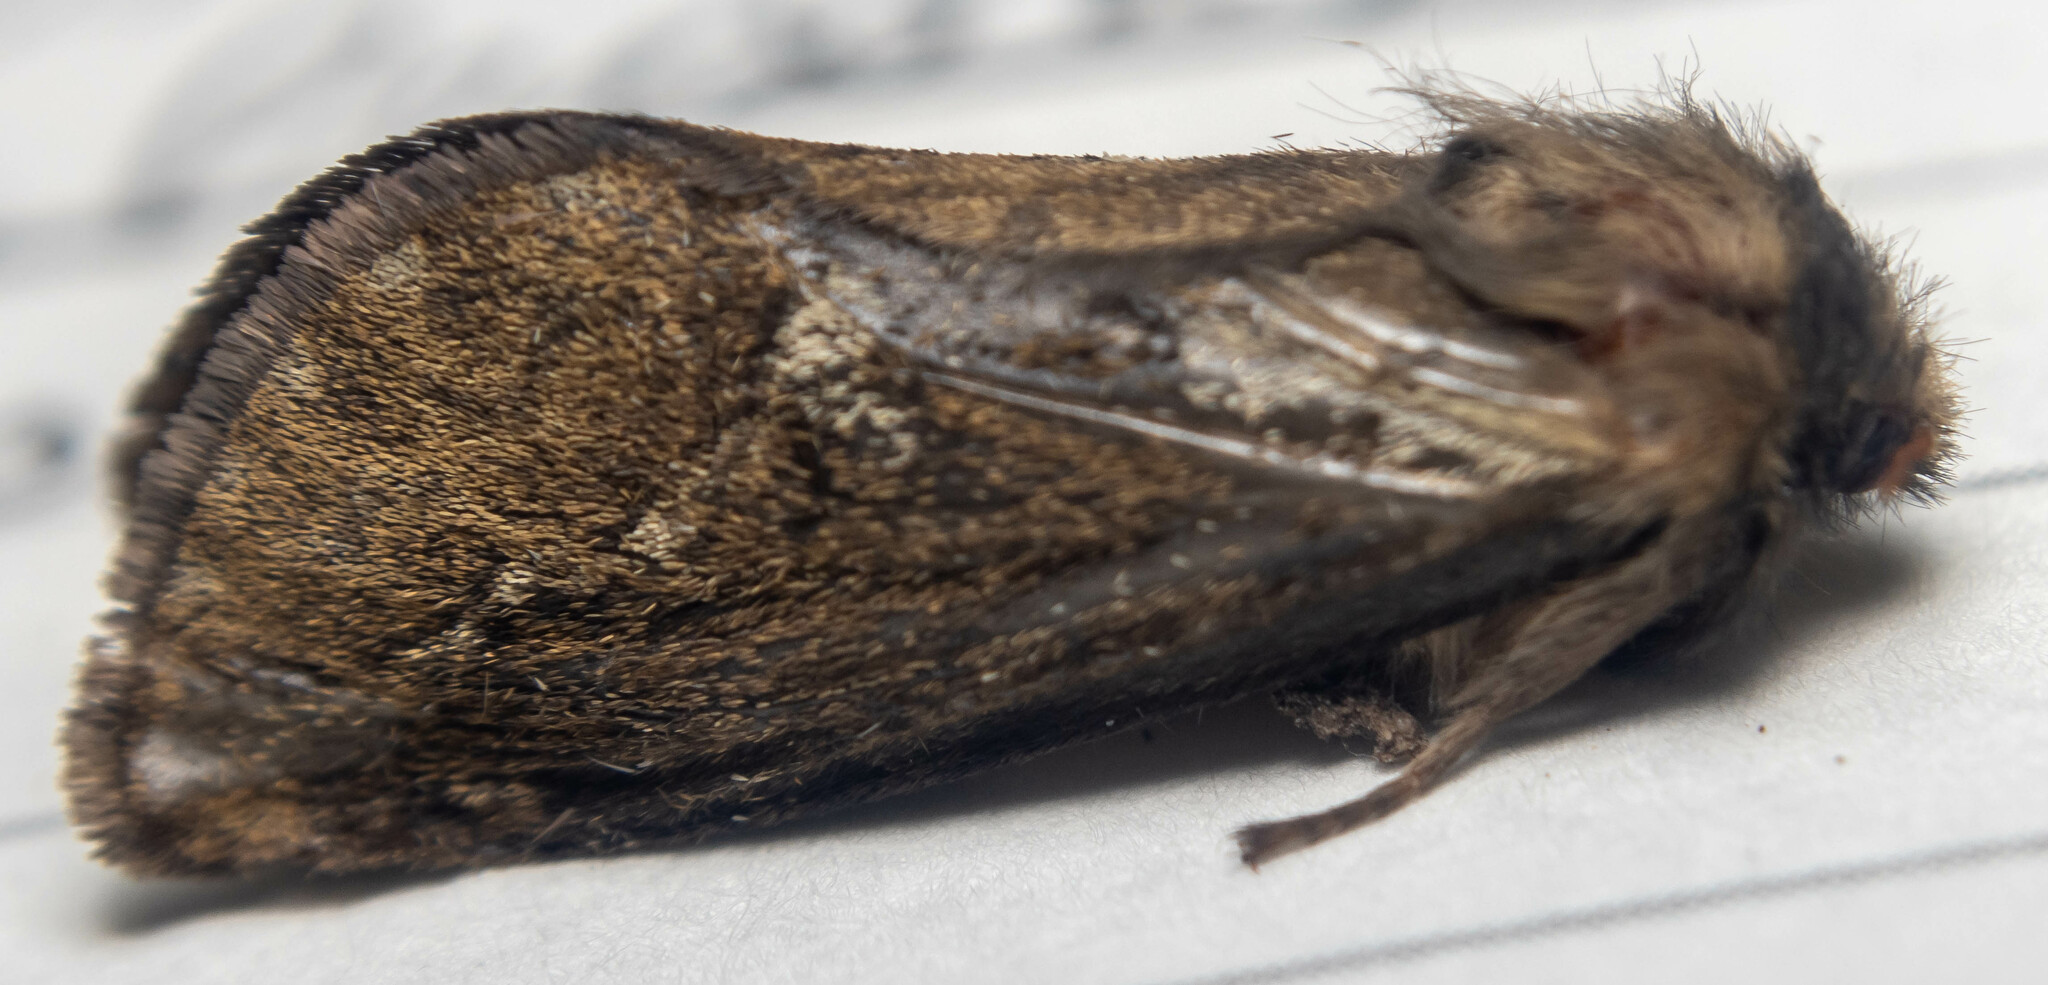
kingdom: Animalia
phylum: Arthropoda
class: Insecta
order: Lepidoptera
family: Hepialidae
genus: Korscheltellus
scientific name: Korscheltellus lupulina
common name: Common swift
